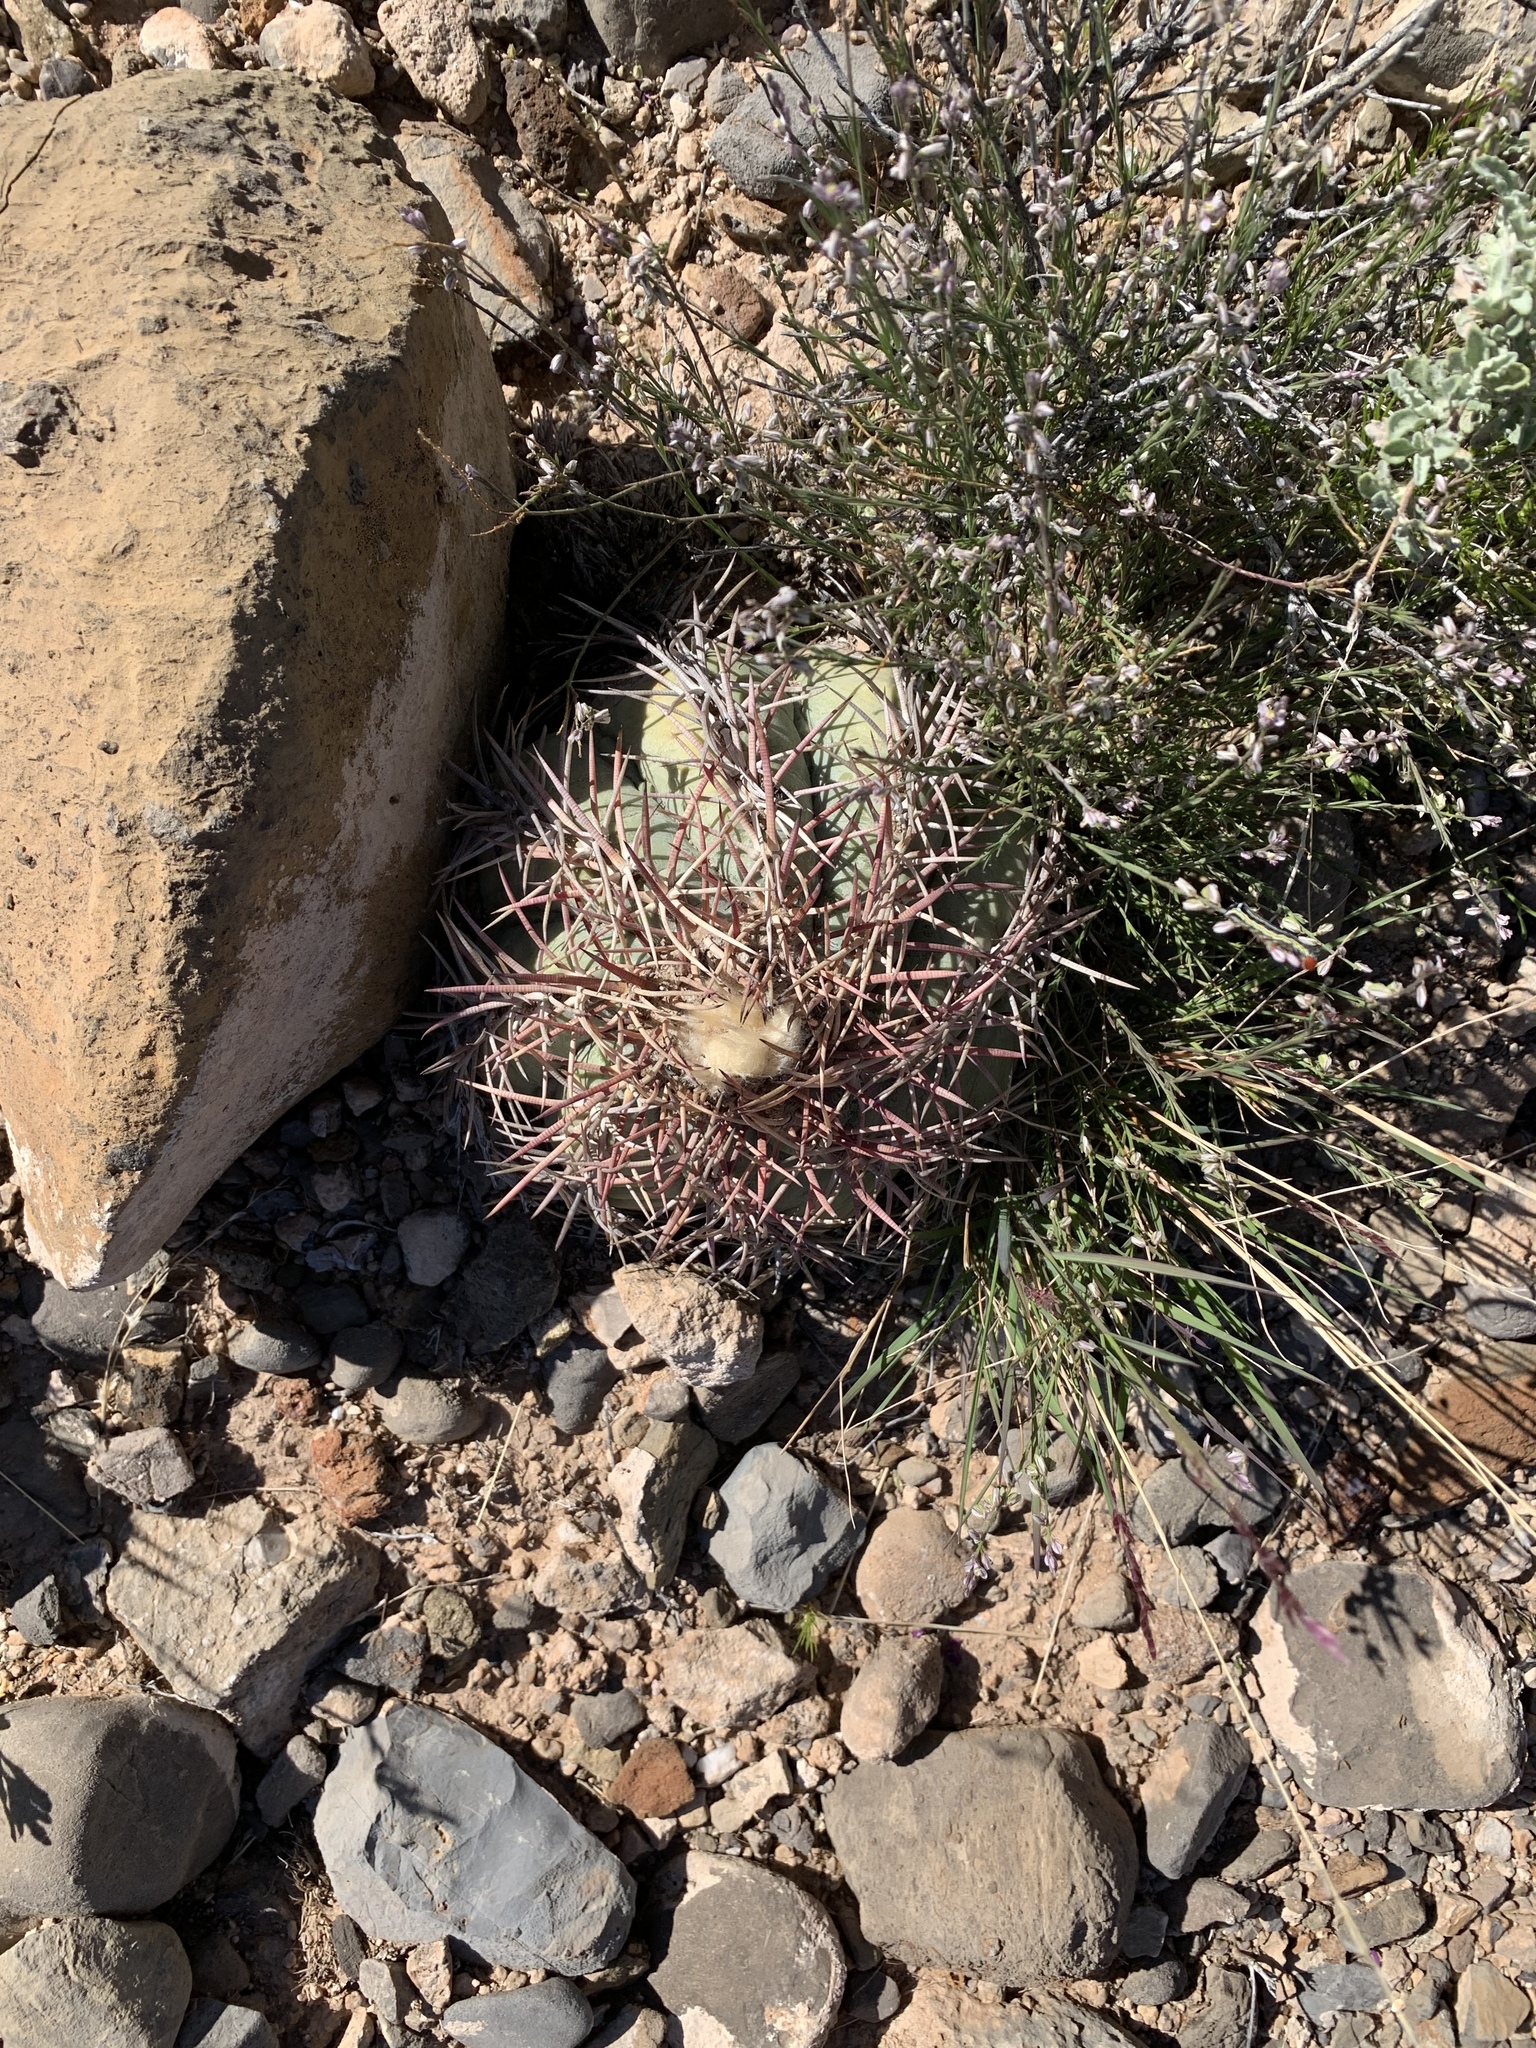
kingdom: Plantae
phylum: Tracheophyta
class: Magnoliopsida
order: Caryophyllales
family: Cactaceae
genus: Echinocactus
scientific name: Echinocactus horizonthalonius
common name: Devilshead
